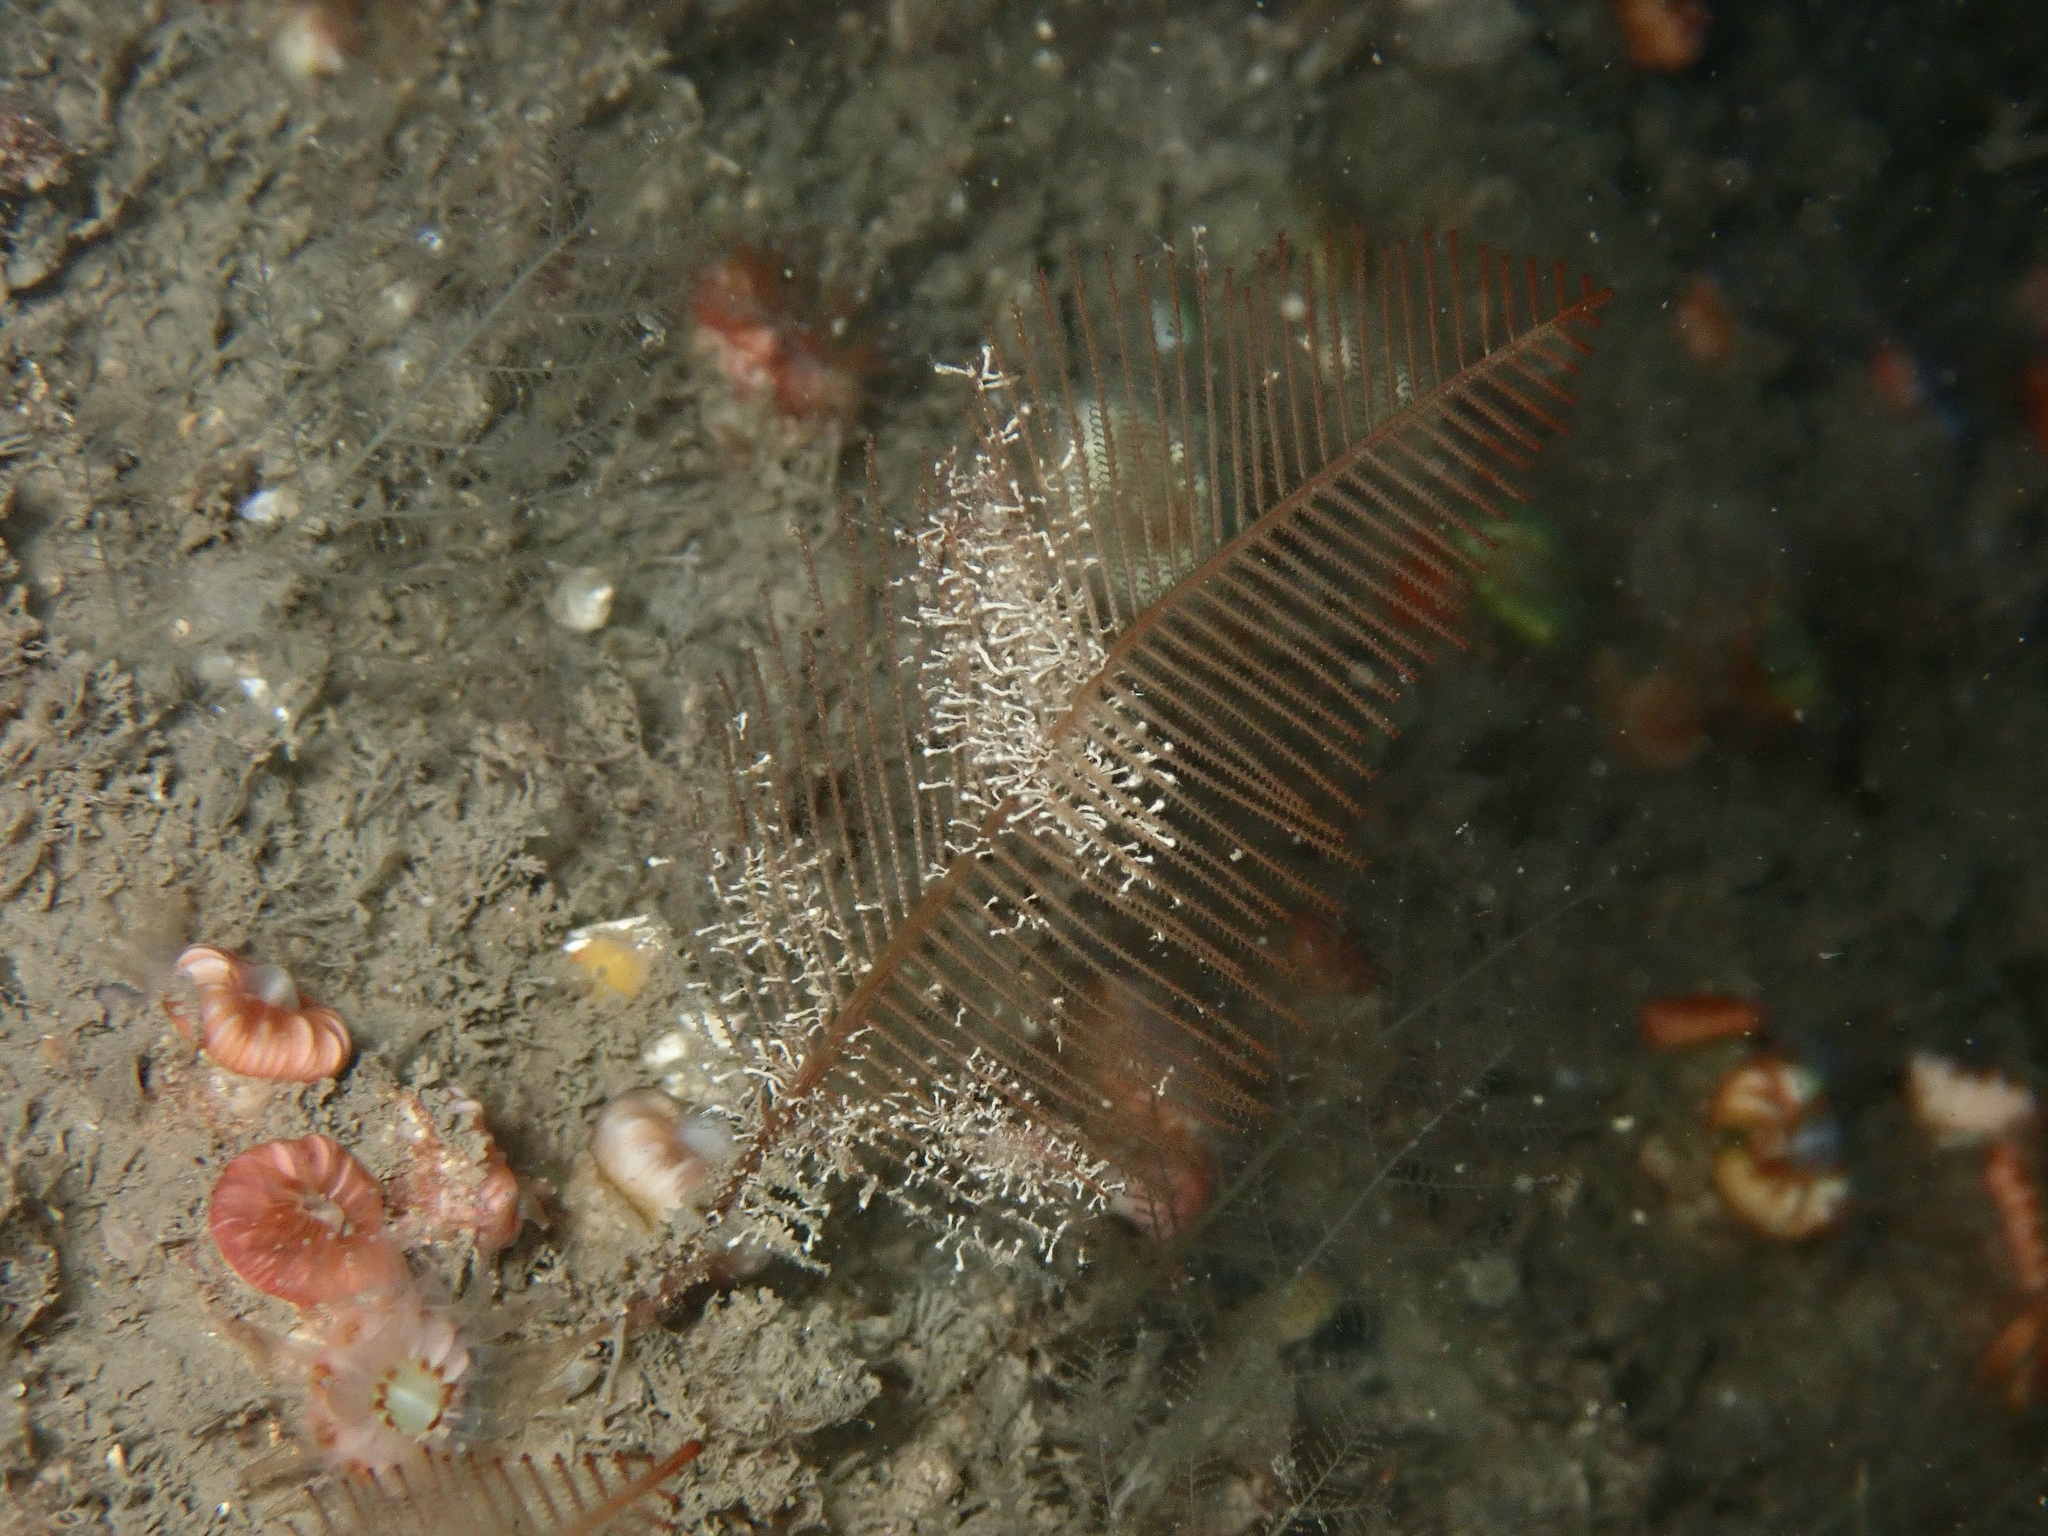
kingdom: Animalia
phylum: Cnidaria
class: Hydrozoa
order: Leptothecata
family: Sertulariidae
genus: Diphasia
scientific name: Diphasia alata
